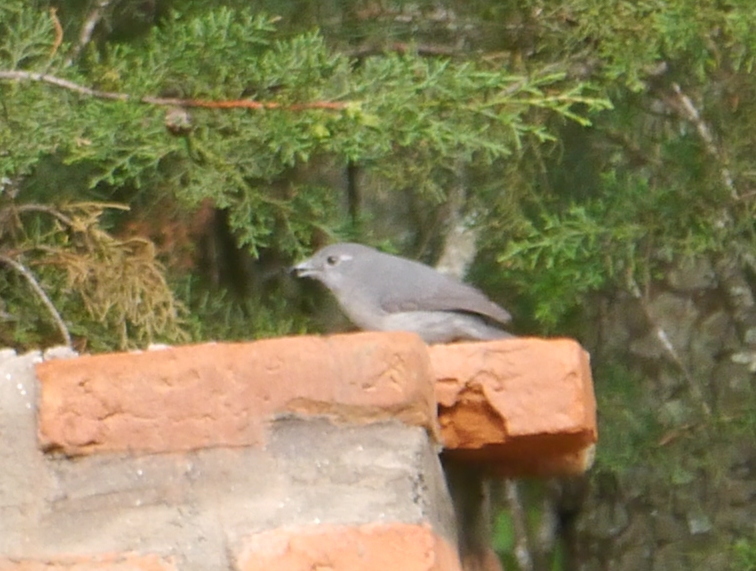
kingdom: Animalia
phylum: Chordata
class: Aves
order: Passeriformes
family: Muscicapidae
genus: Dioptrornis
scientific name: Dioptrornis fischeri
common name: White-eyed slaty flycatcher
